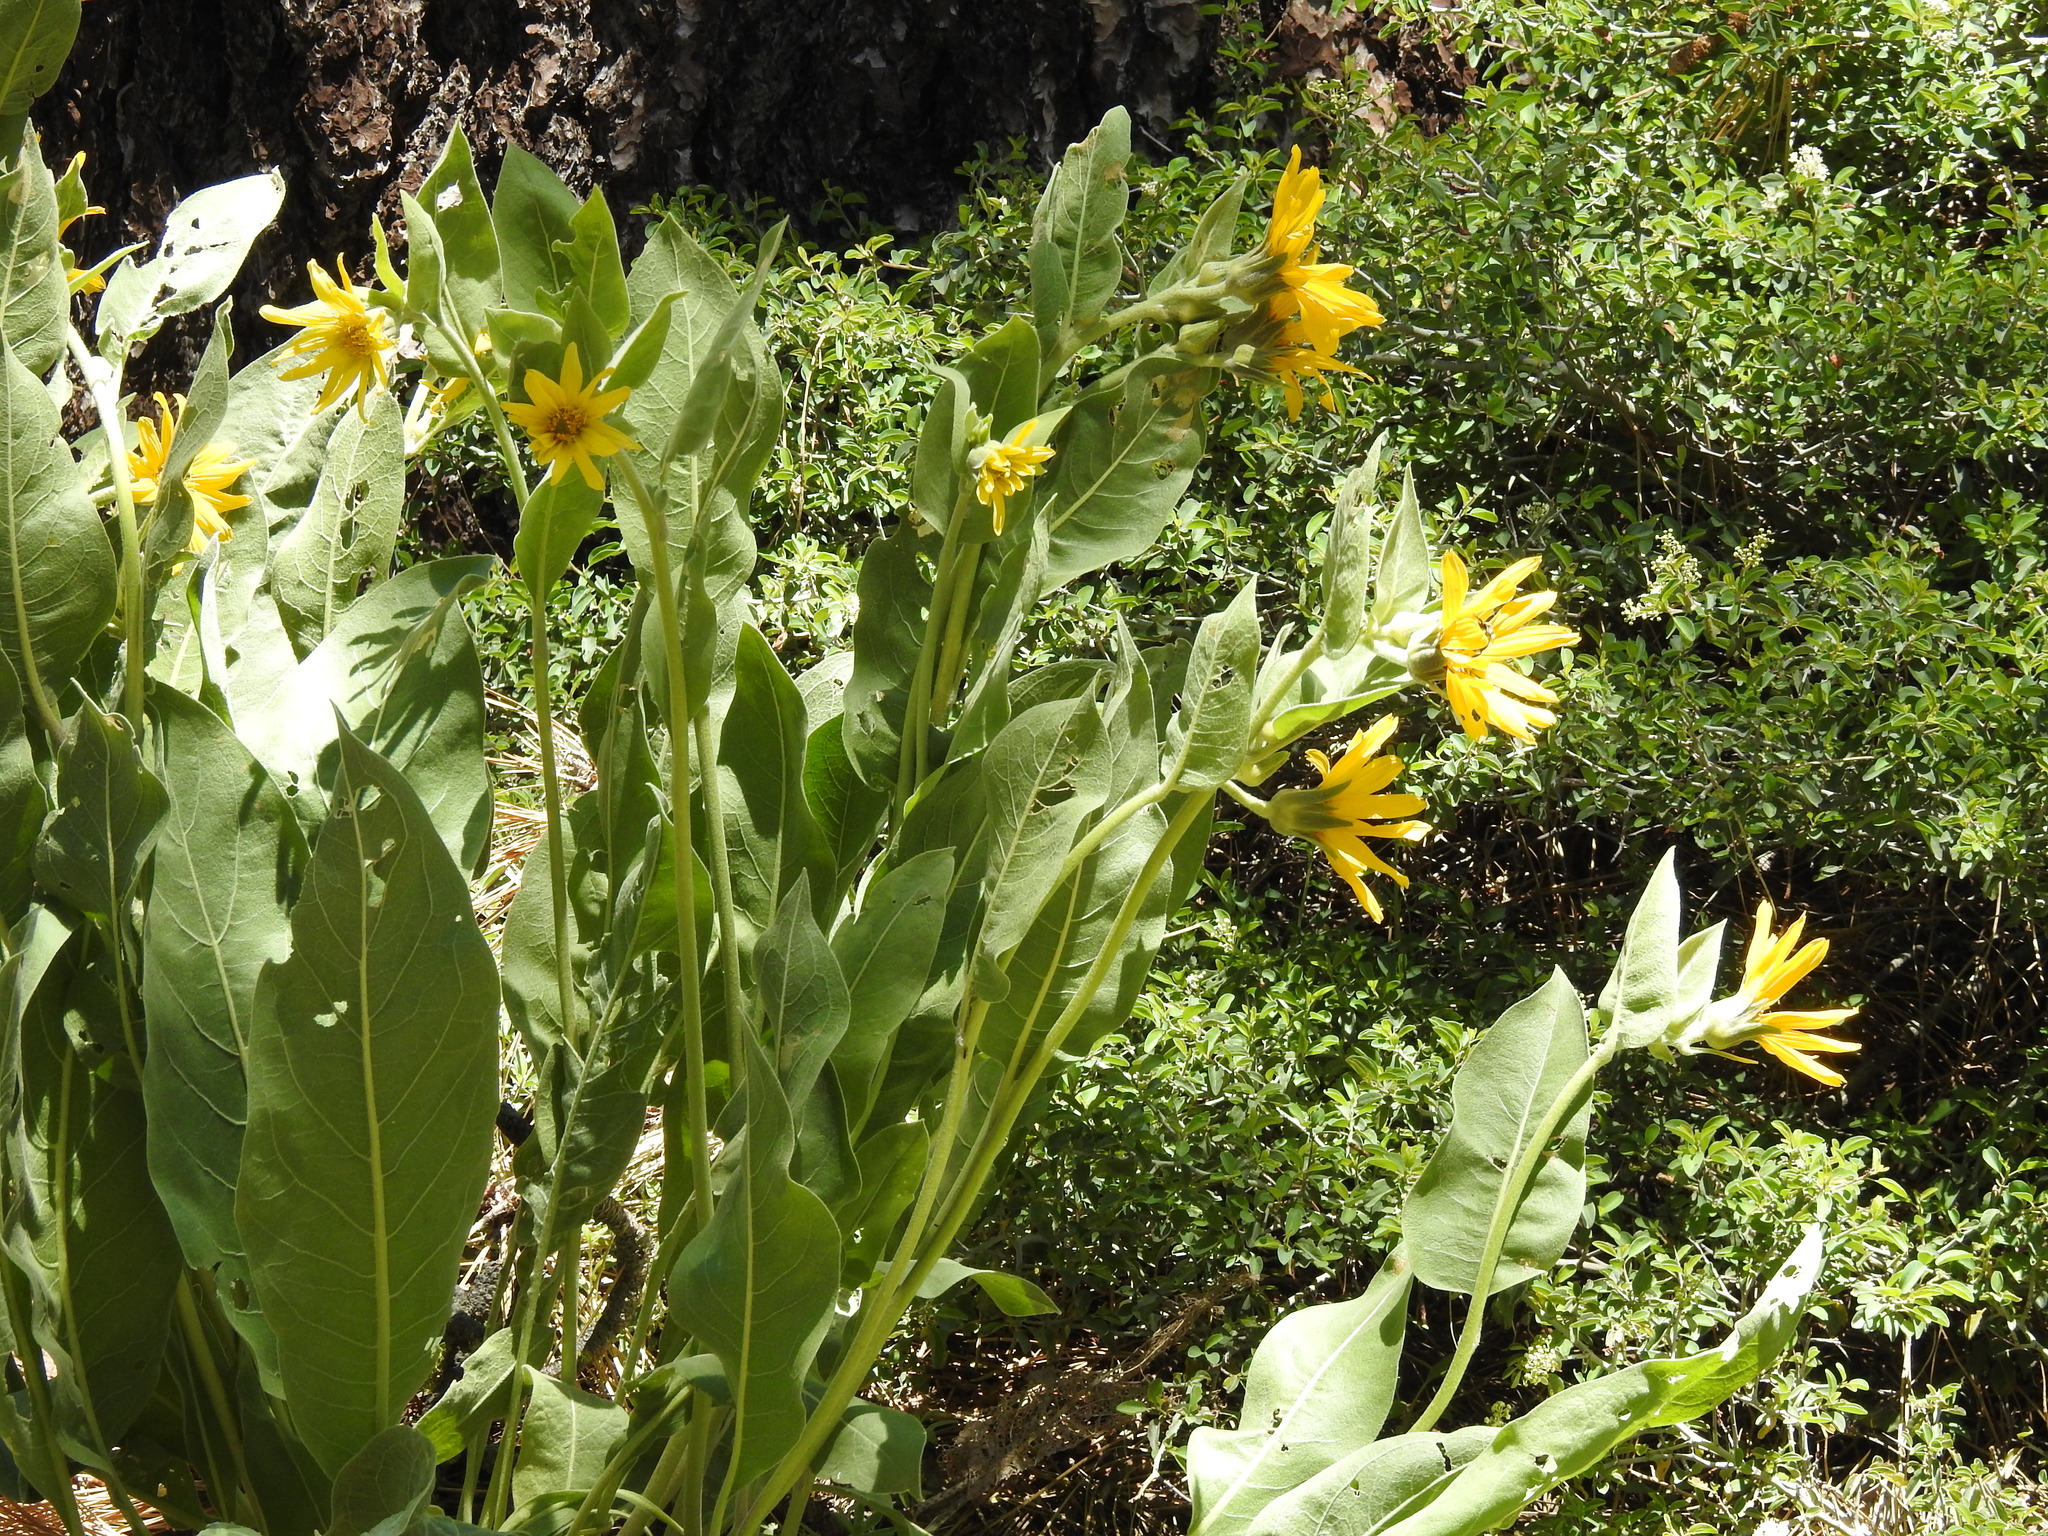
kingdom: Plantae
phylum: Tracheophyta
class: Magnoliopsida
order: Asterales
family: Asteraceae
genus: Wyethia
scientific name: Wyethia mollis
